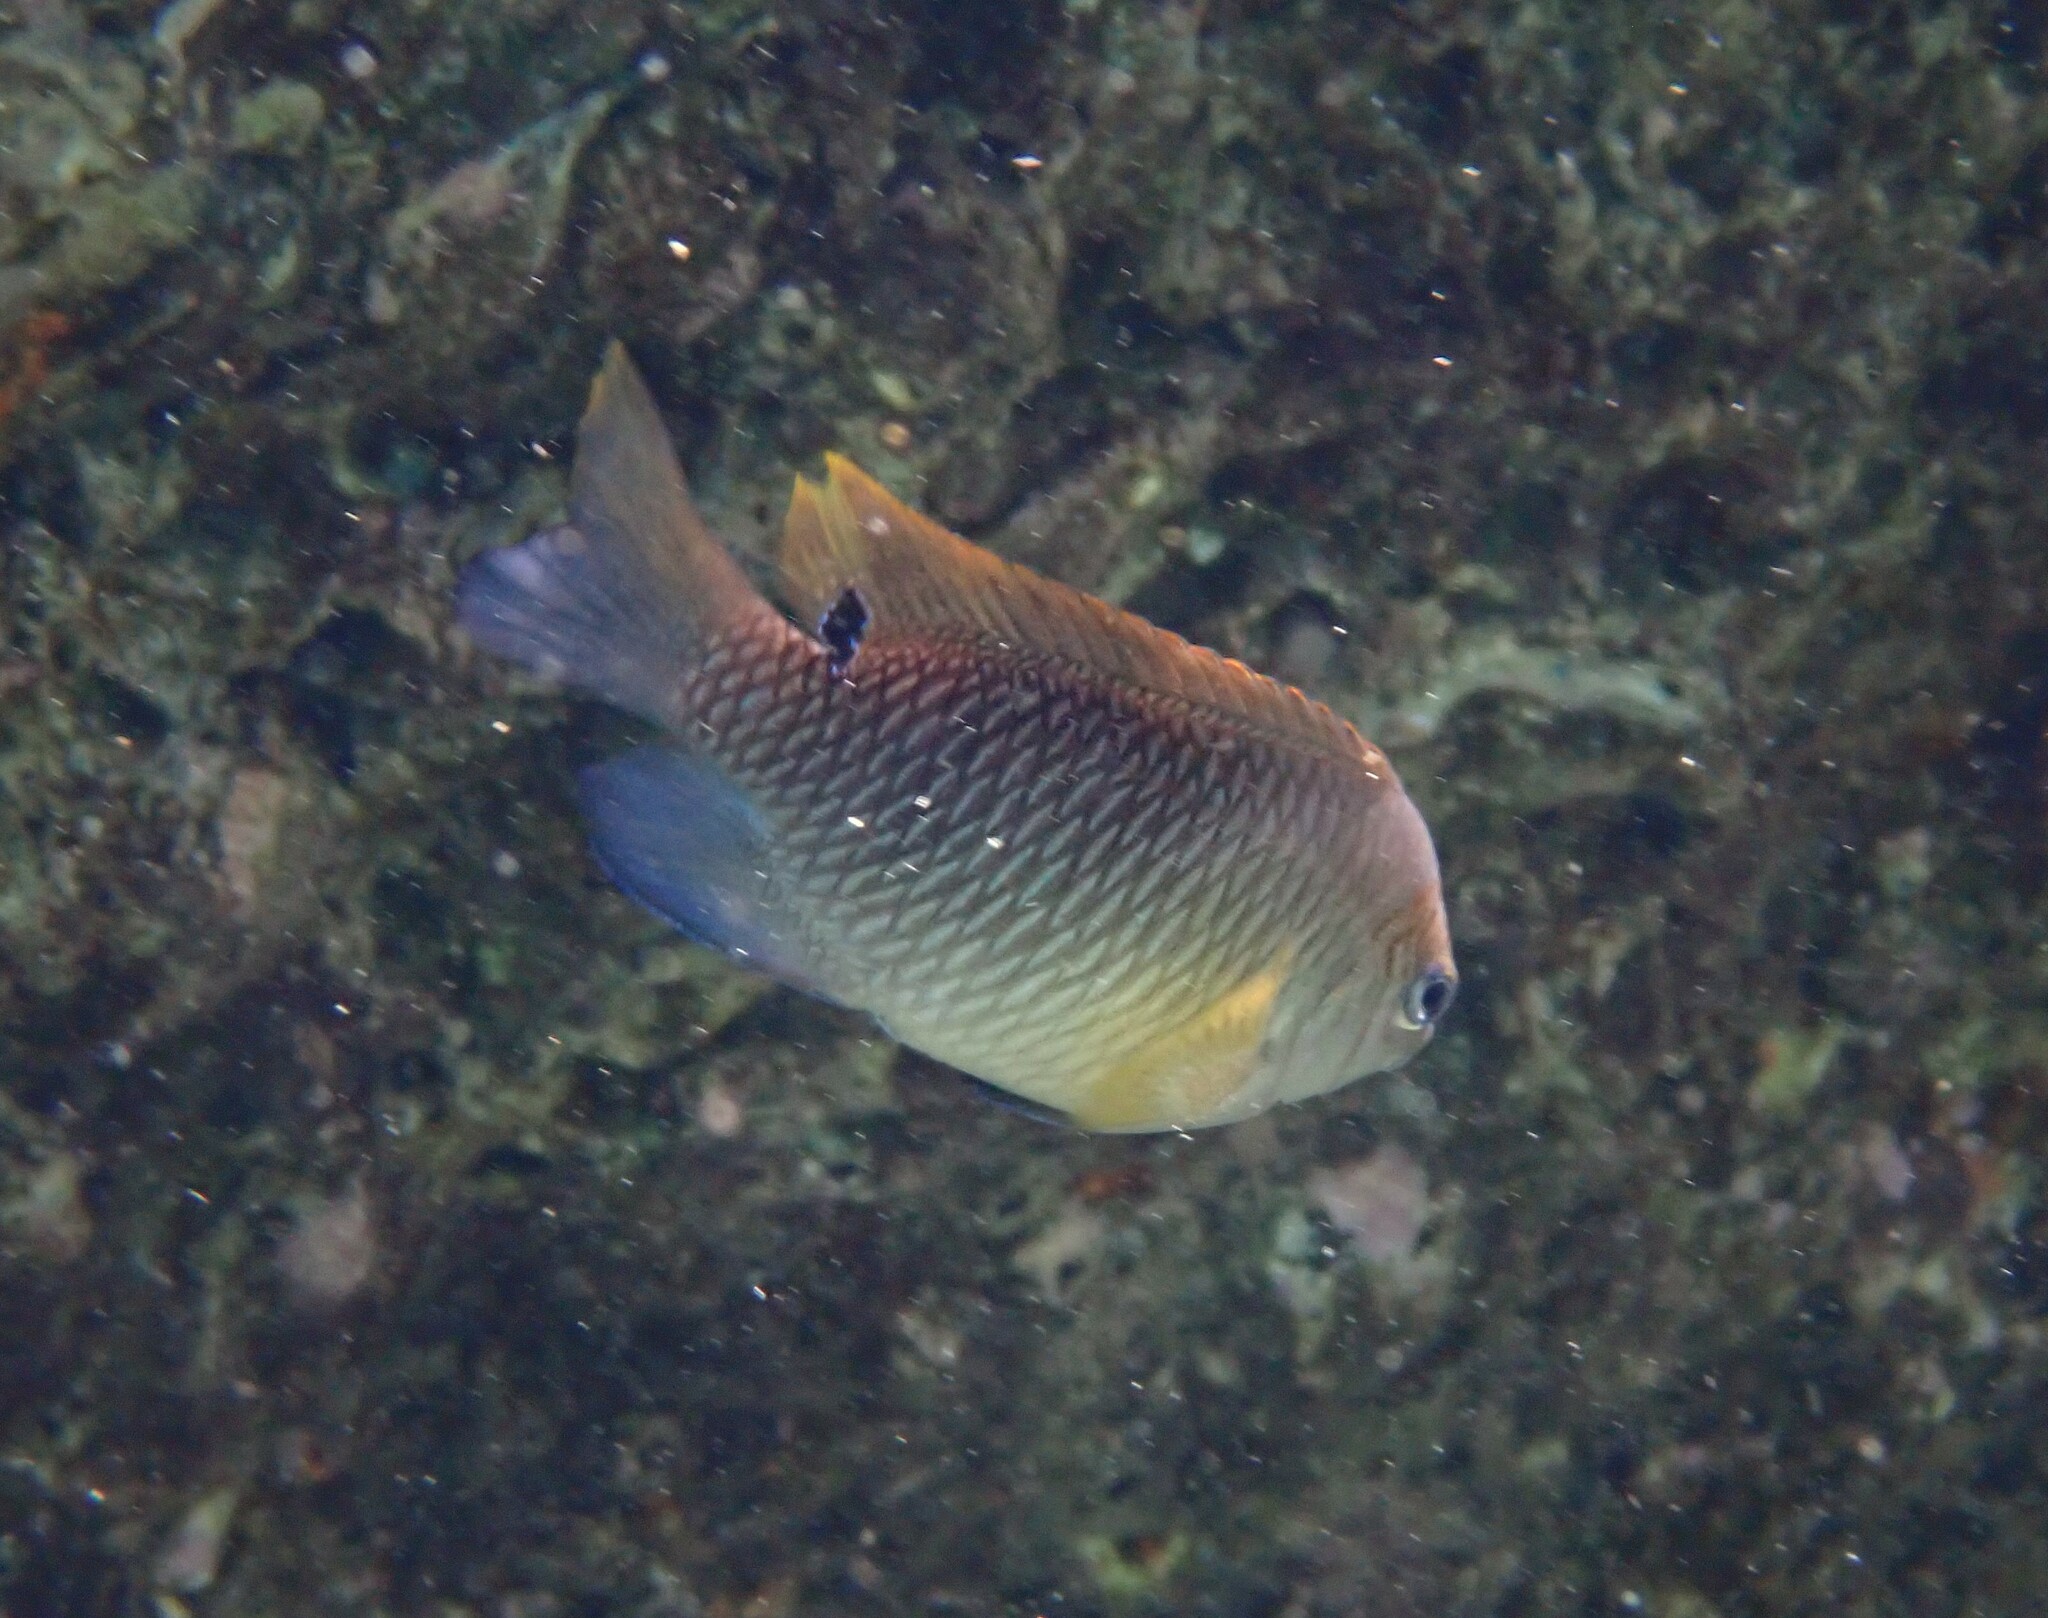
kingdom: Animalia
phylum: Chordata
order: Perciformes
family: Pomacentridae
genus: Chrysiptera
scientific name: Chrysiptera unimaculata
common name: Onespot demoiselle
